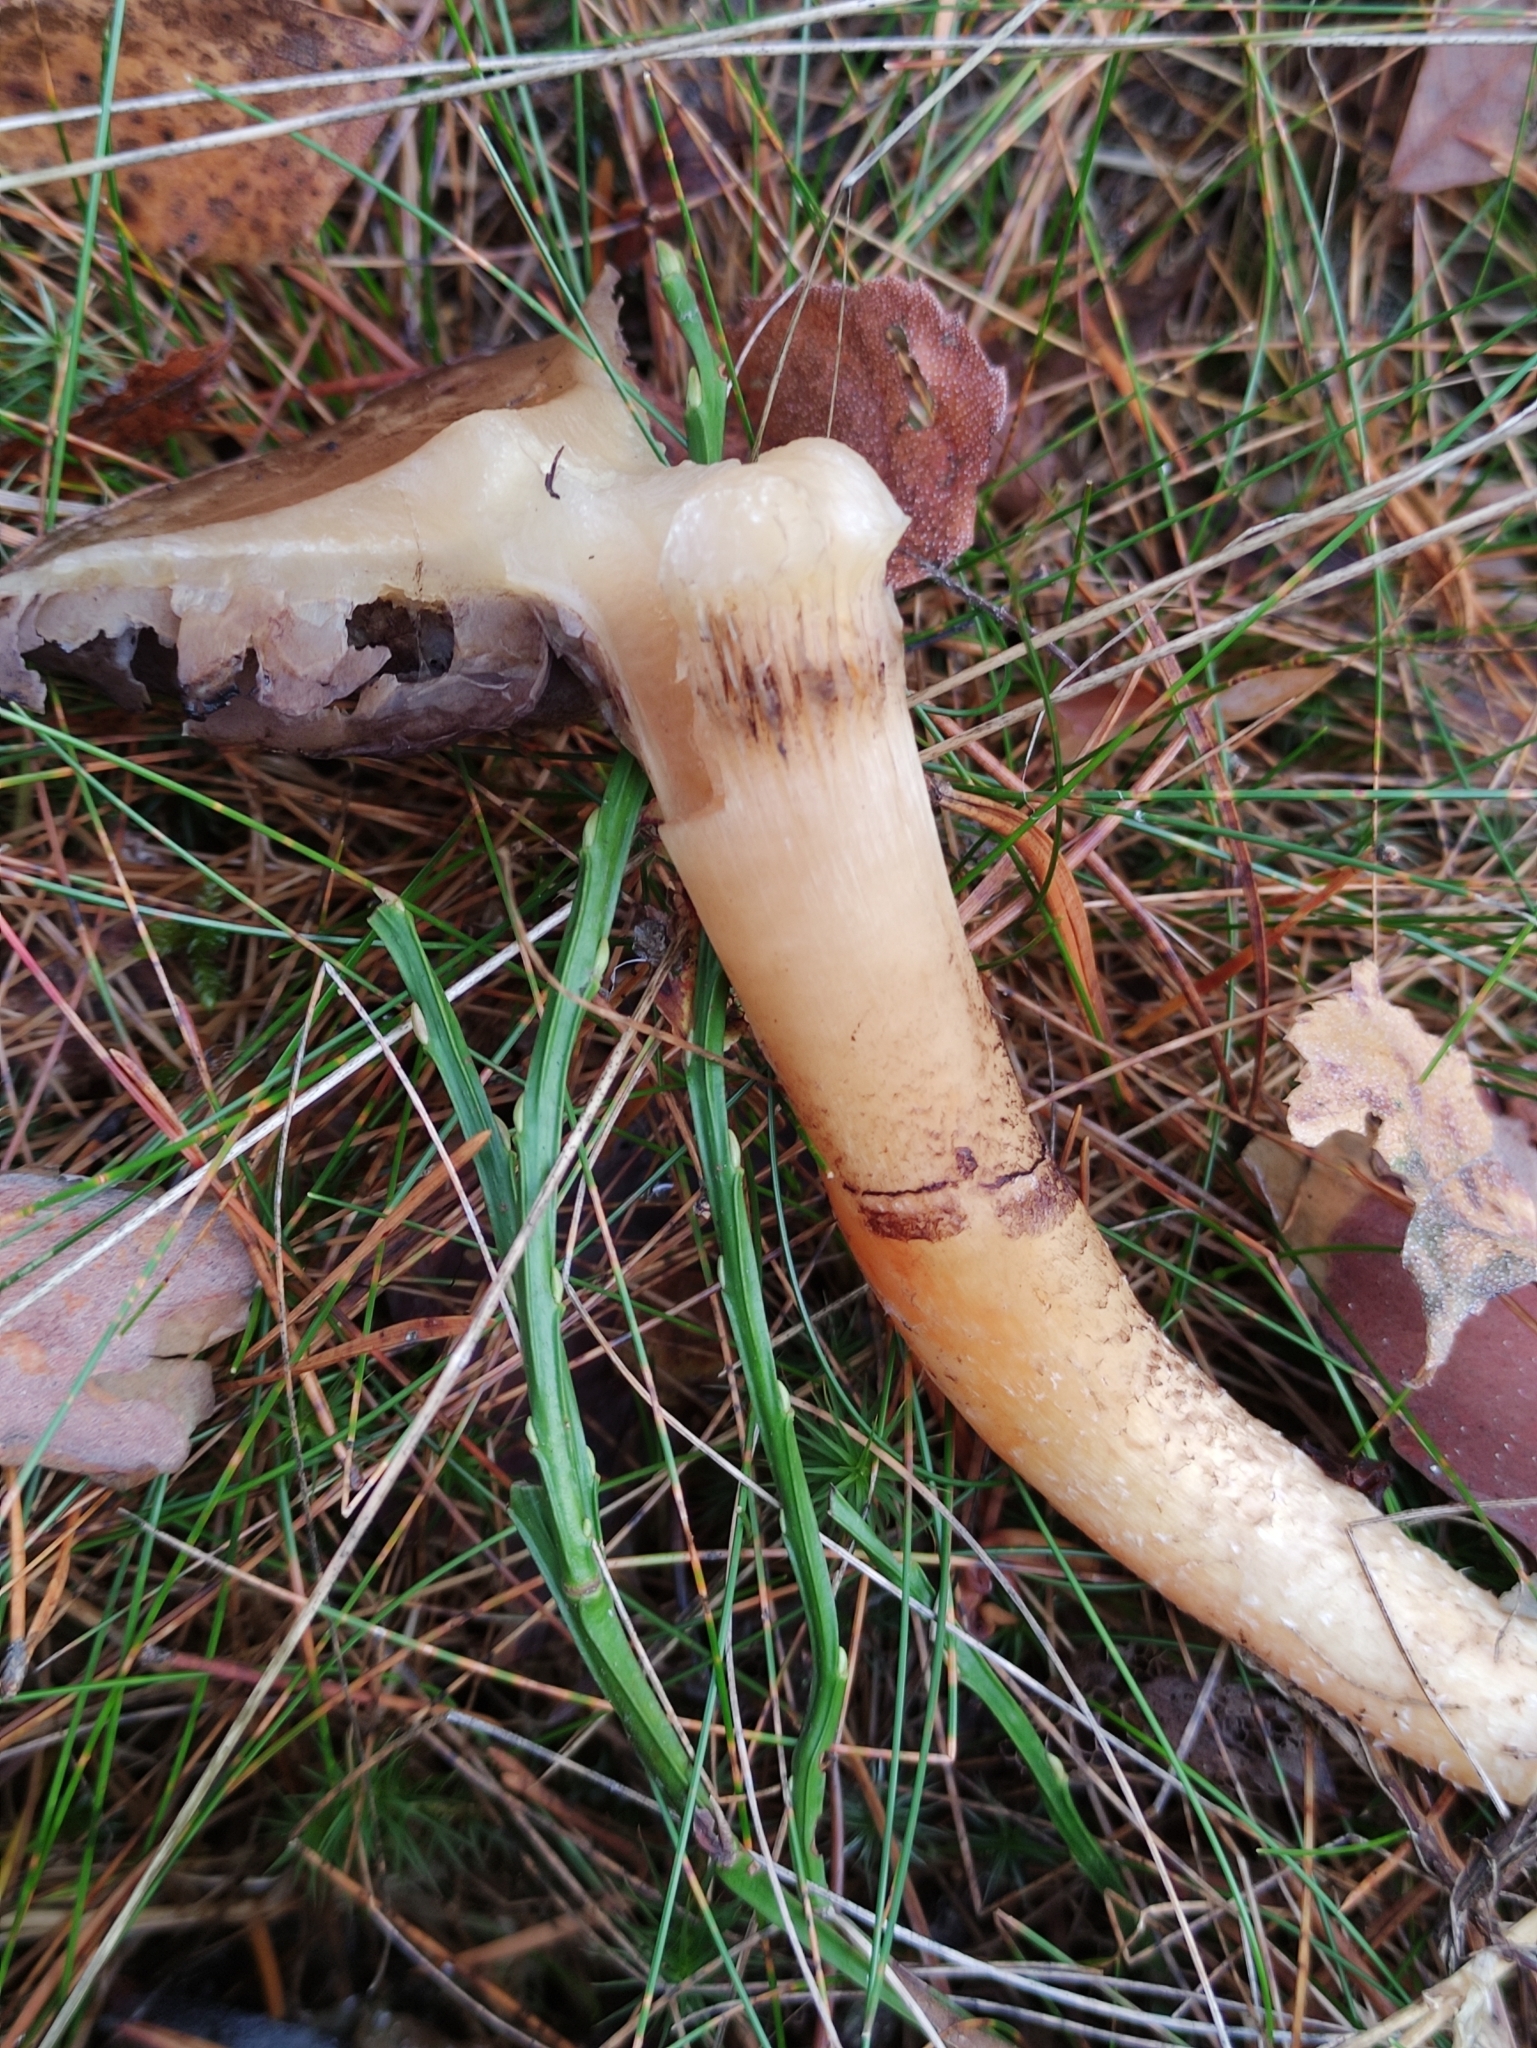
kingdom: Fungi
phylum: Basidiomycota
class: Agaricomycetes
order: Agaricales
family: Strophariaceae
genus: Stropharia
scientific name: Stropharia hornemannii
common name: Conifer roundhead
